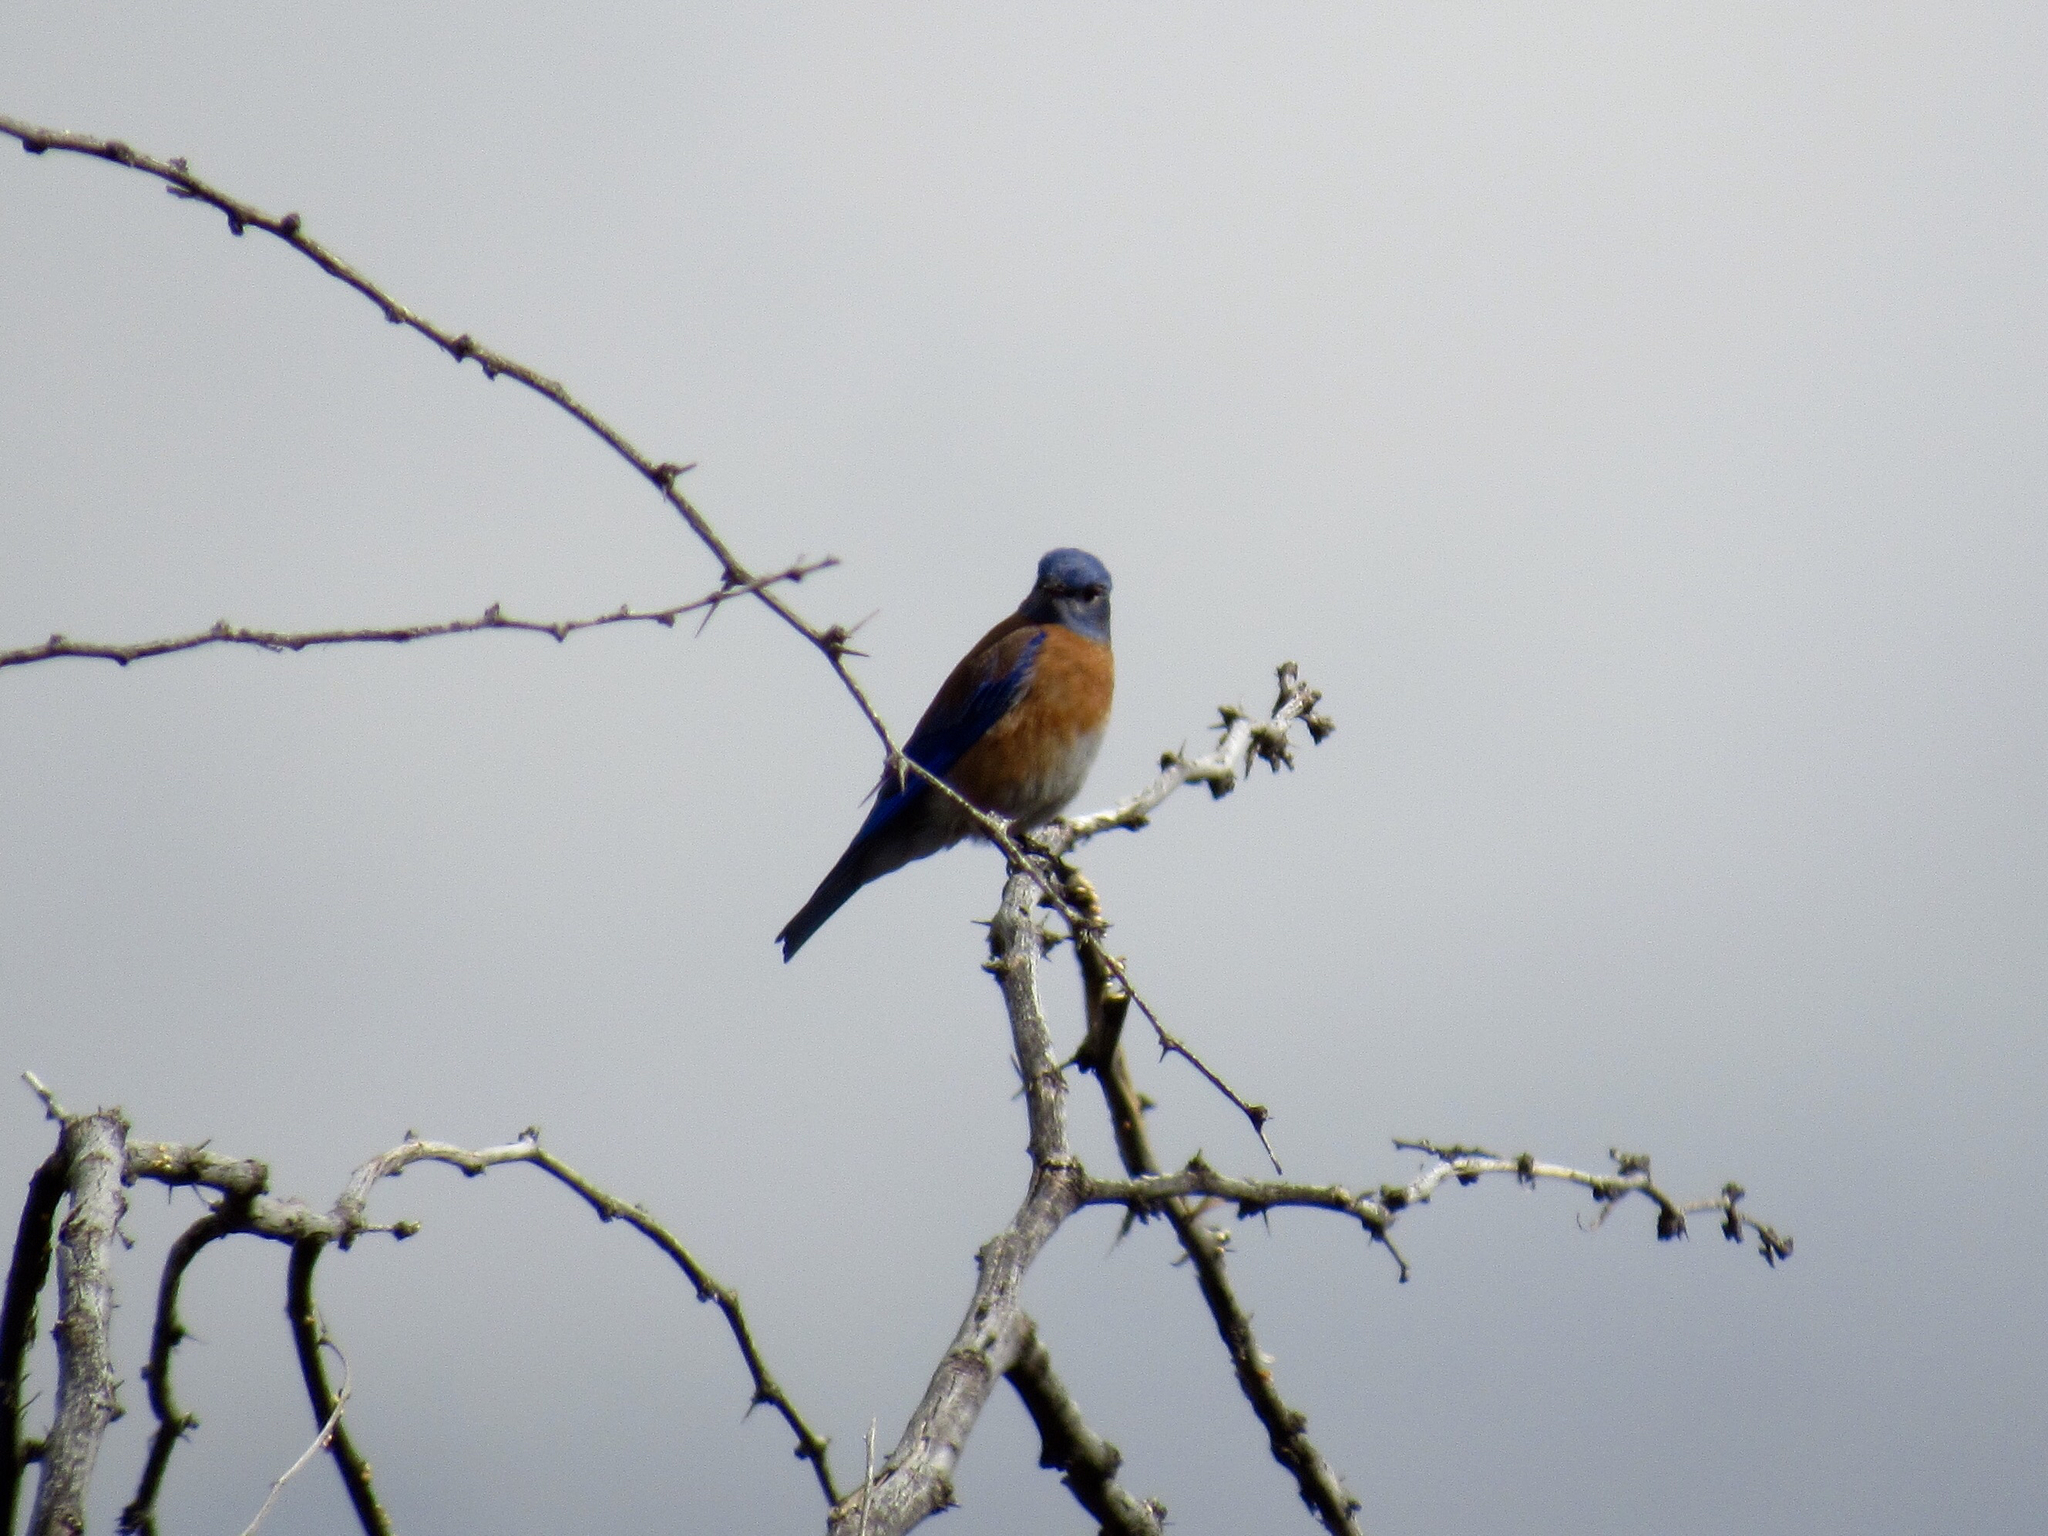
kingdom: Animalia
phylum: Chordata
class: Aves
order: Passeriformes
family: Turdidae
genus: Sialia
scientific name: Sialia mexicana
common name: Western bluebird
